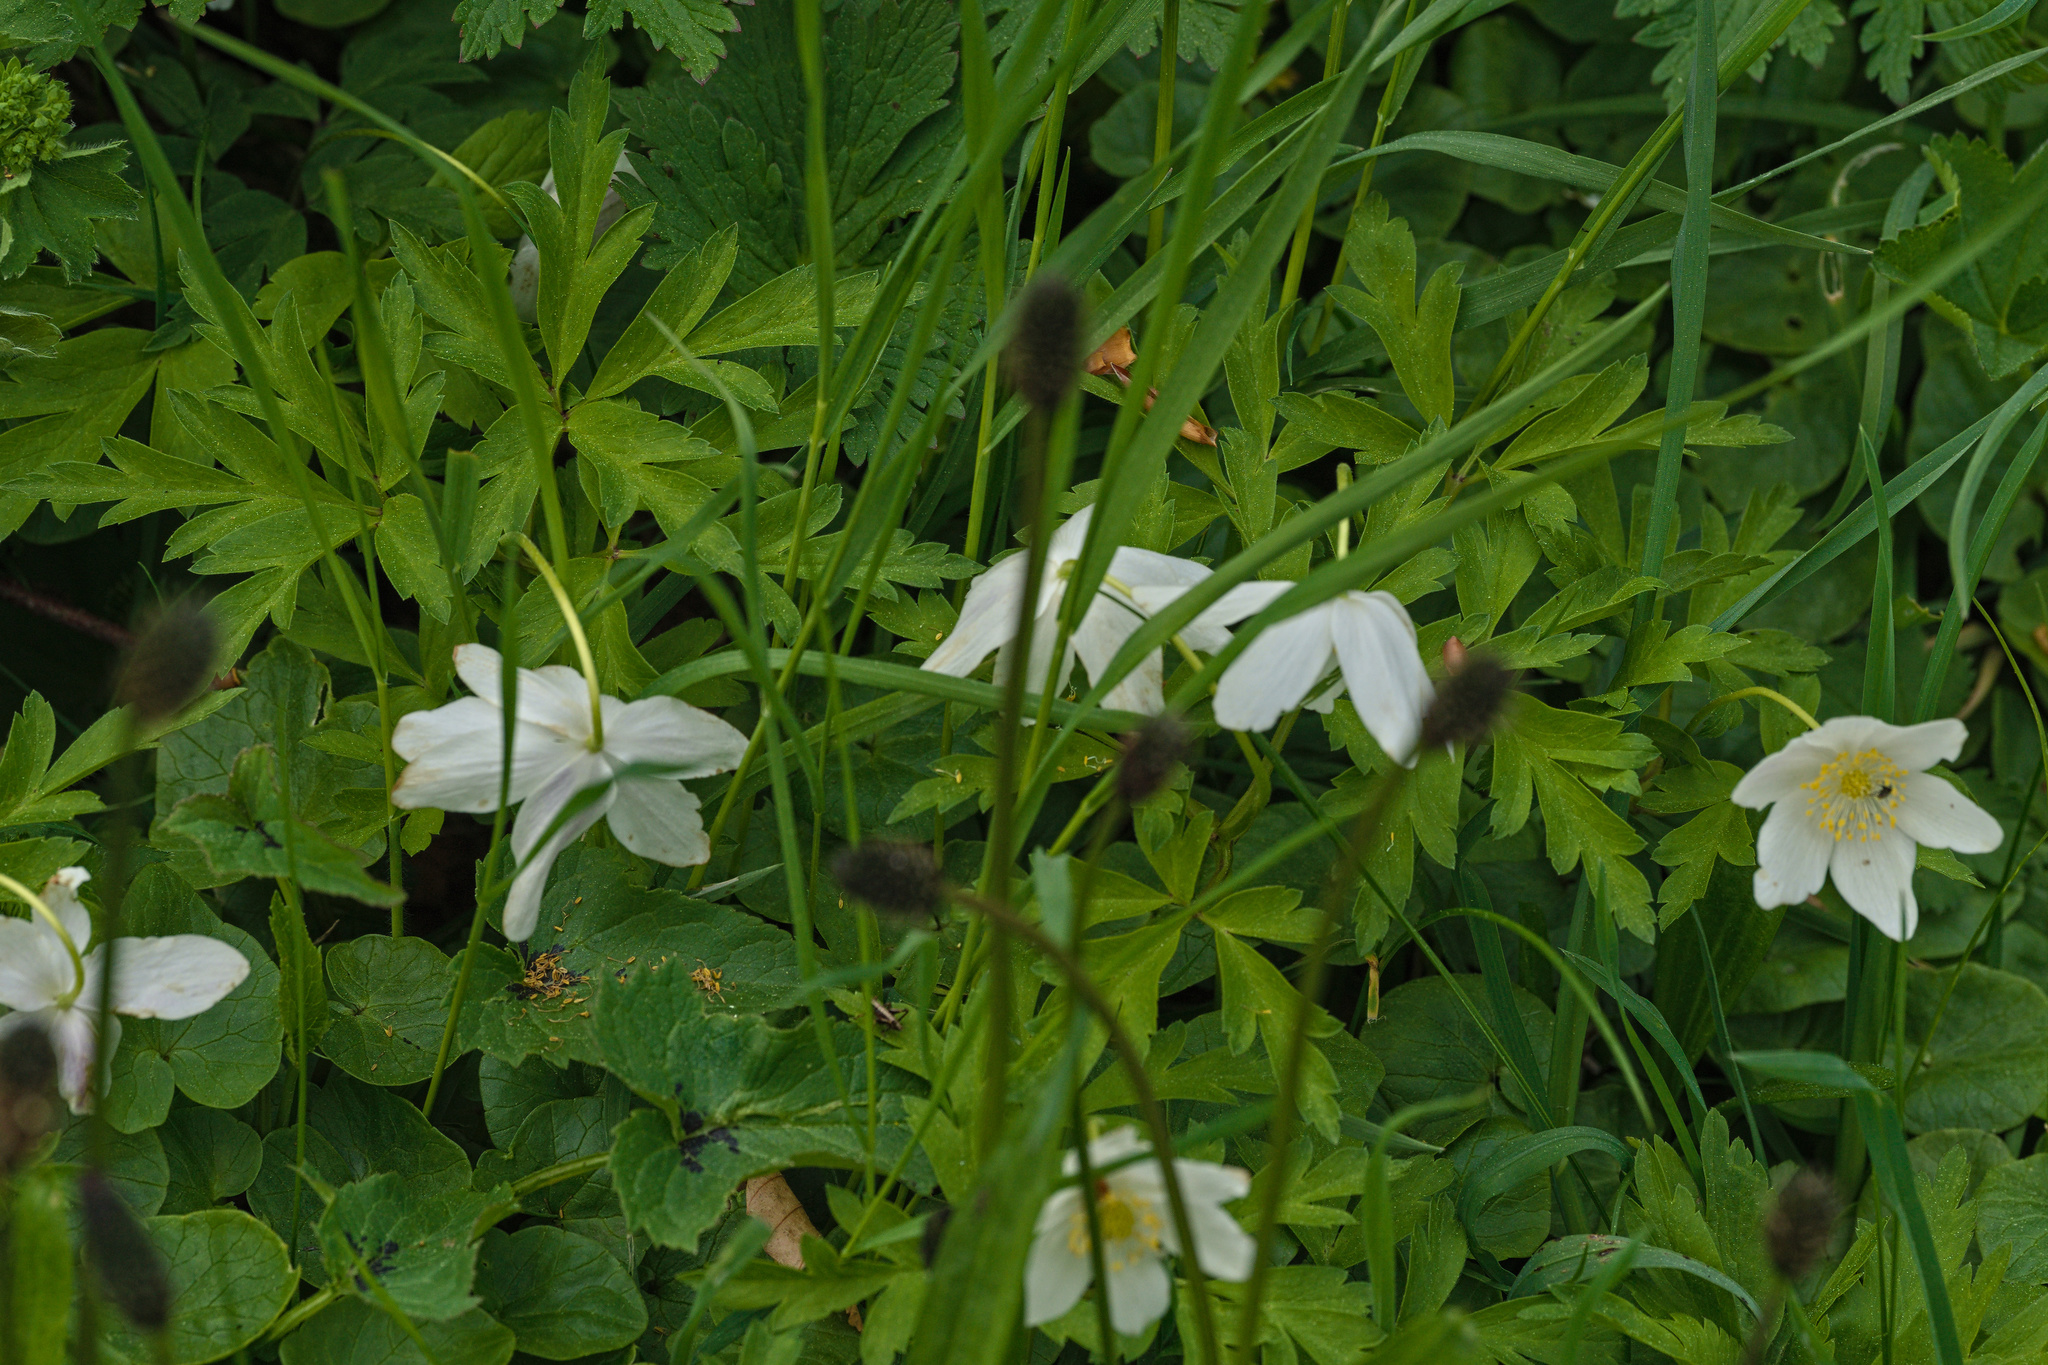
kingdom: Plantae
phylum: Tracheophyta
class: Magnoliopsida
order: Ranunculales
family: Ranunculaceae
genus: Anemone
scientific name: Anemone nemorosa
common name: Wood anemone
